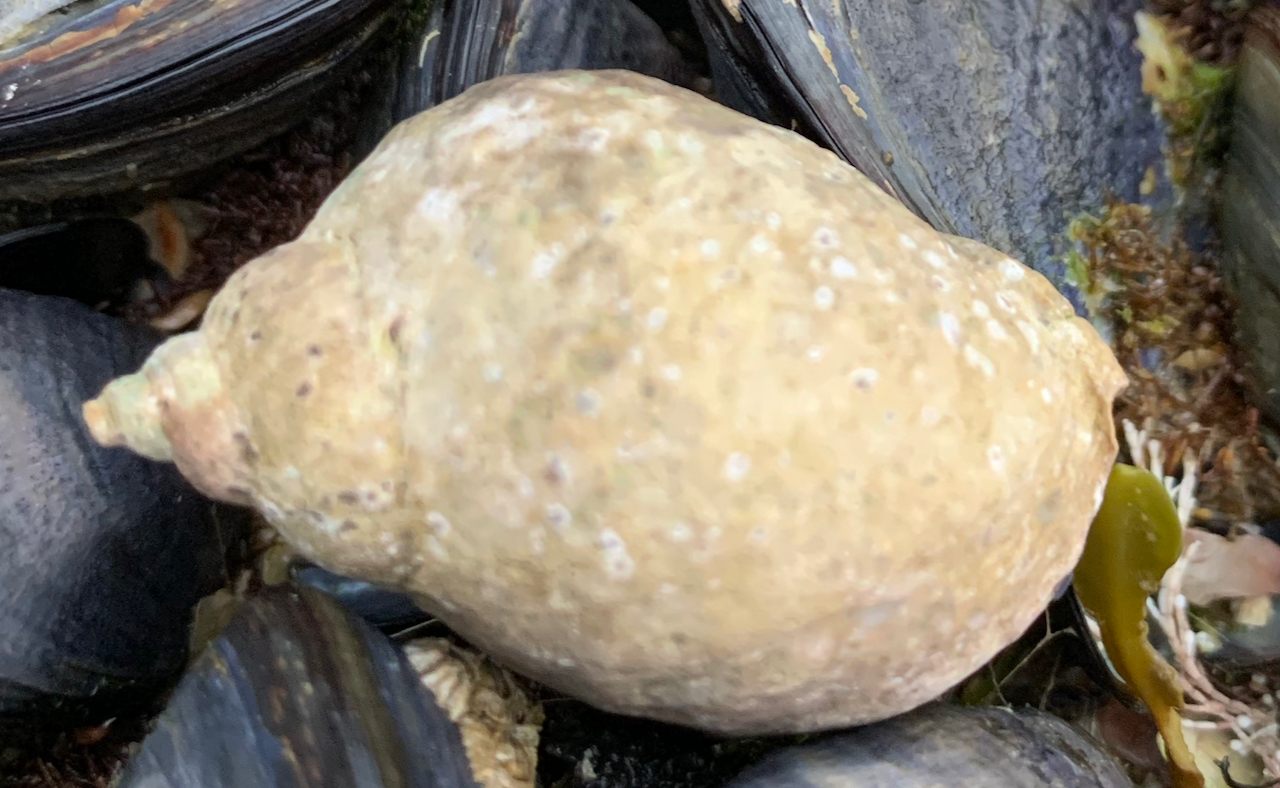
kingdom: Animalia
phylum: Mollusca
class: Gastropoda
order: Neogastropoda
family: Muricidae
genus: Nucella
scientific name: Nucella lapillus
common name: Dog whelk
